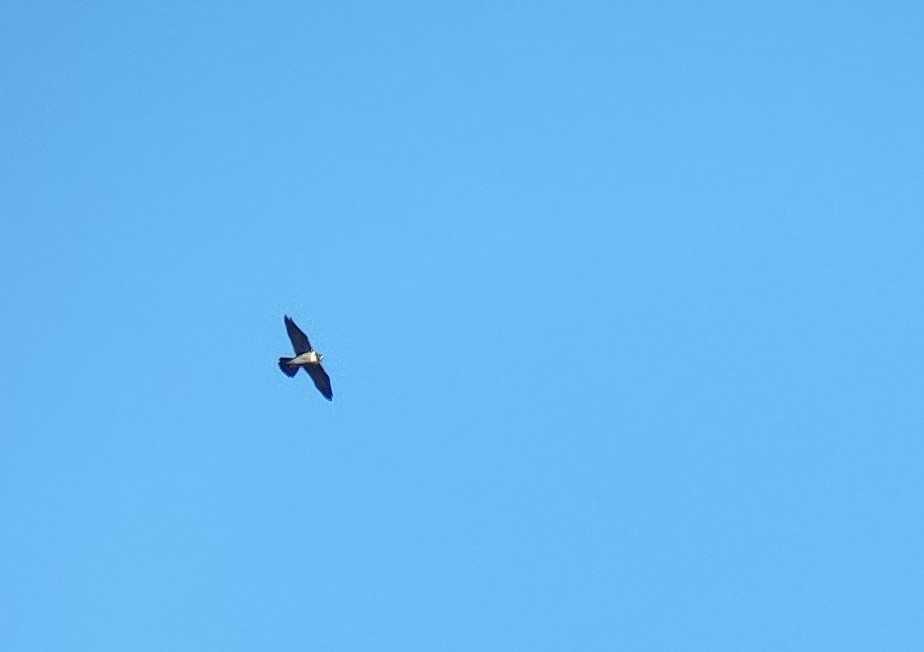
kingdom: Animalia
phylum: Chordata
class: Aves
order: Falconiformes
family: Falconidae
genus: Falco
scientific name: Falco peregrinus
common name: Peregrine falcon
